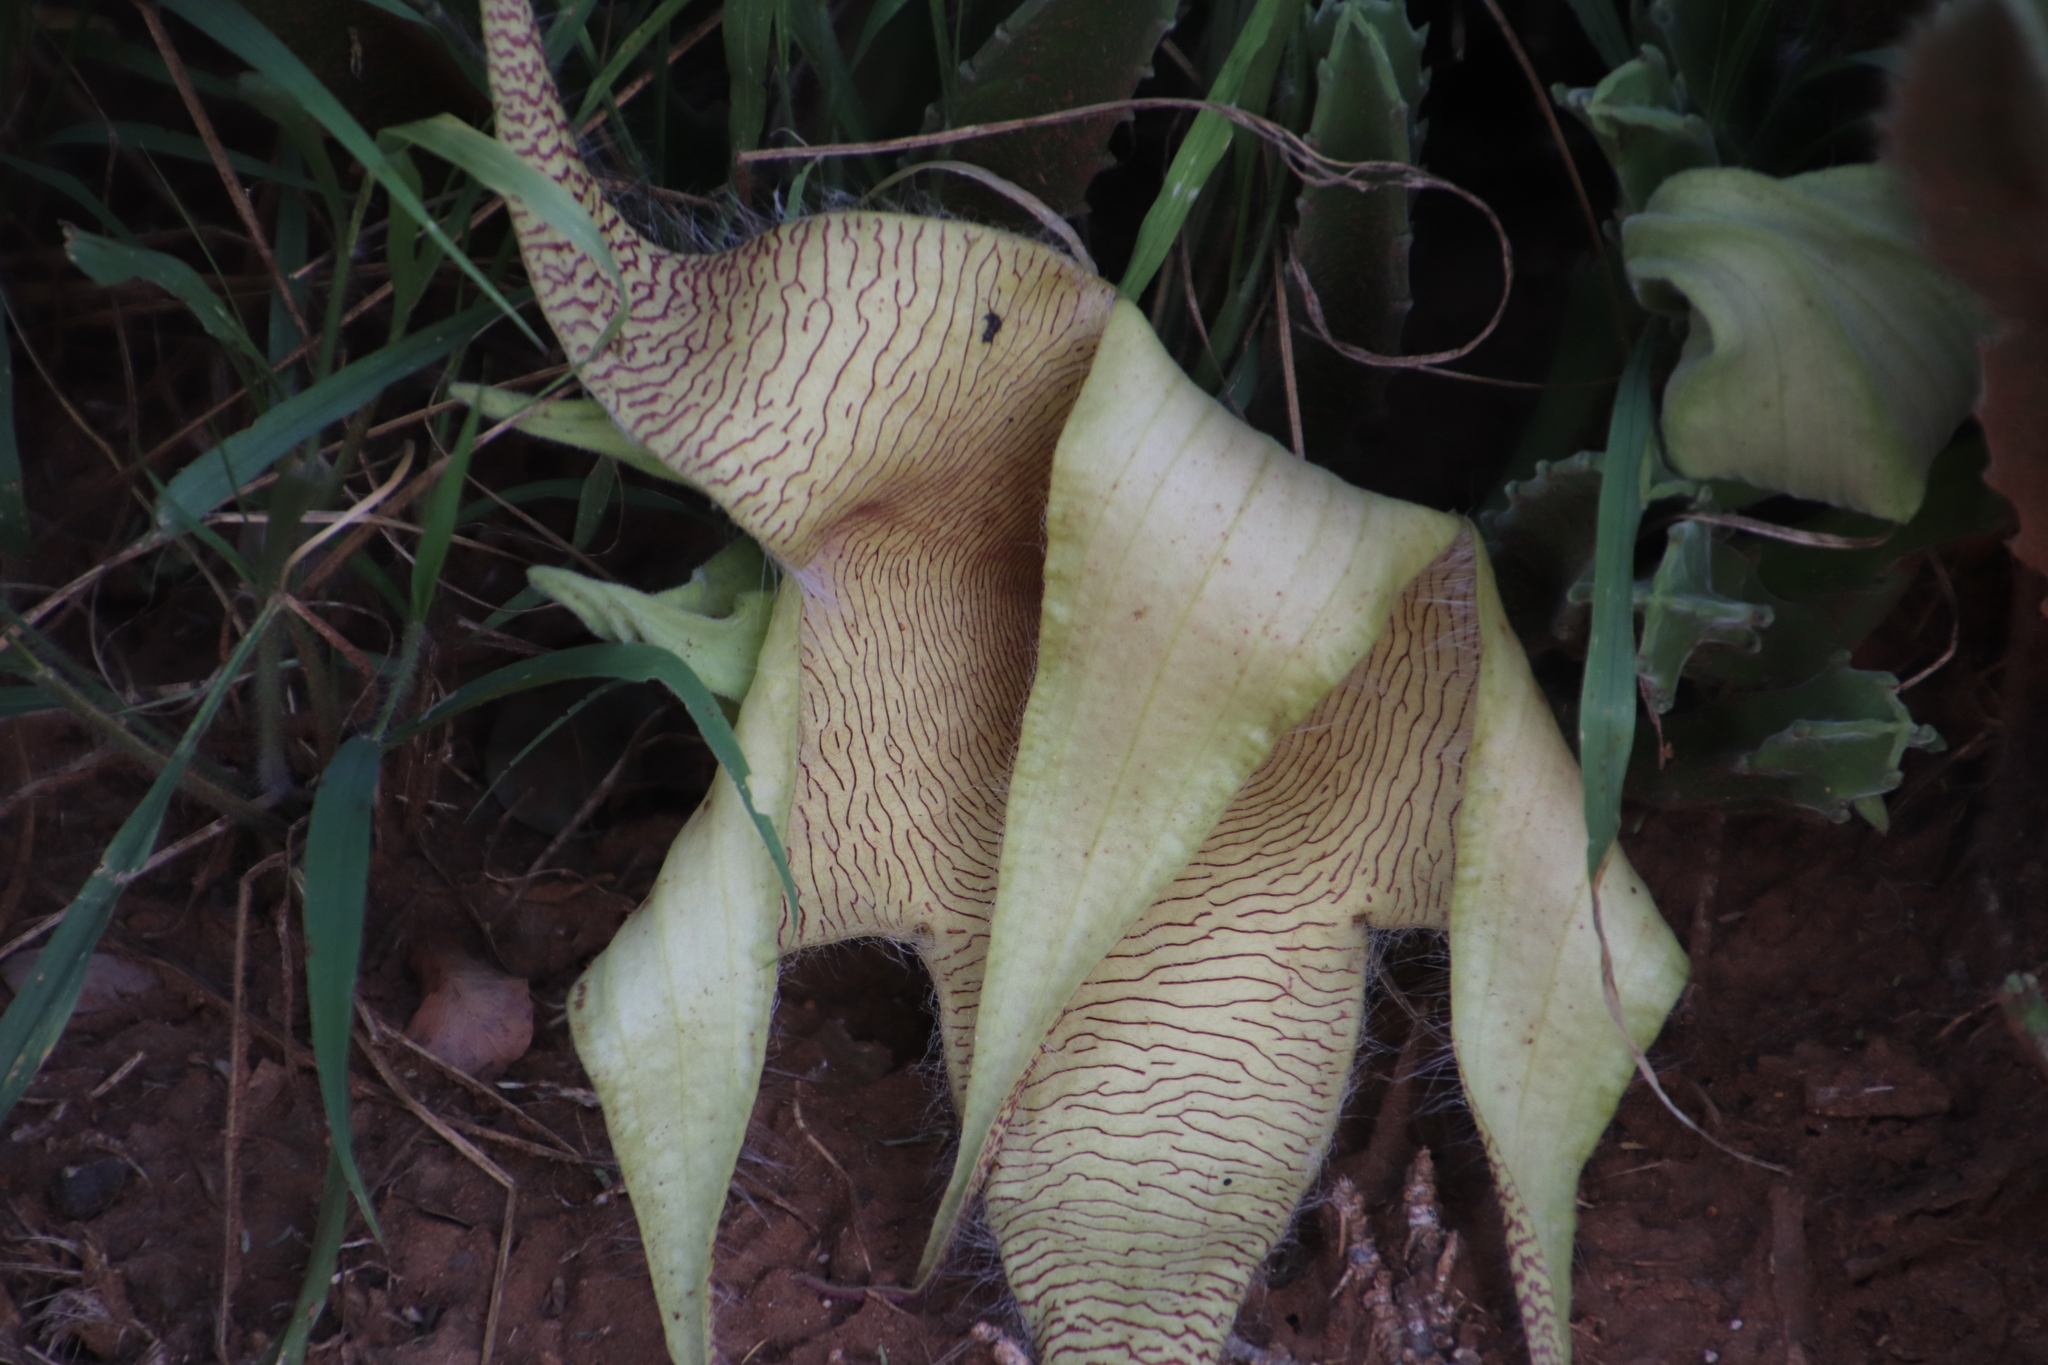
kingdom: Plantae
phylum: Tracheophyta
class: Magnoliopsida
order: Gentianales
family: Apocynaceae
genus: Ceropegia
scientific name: Ceropegia gigantea
